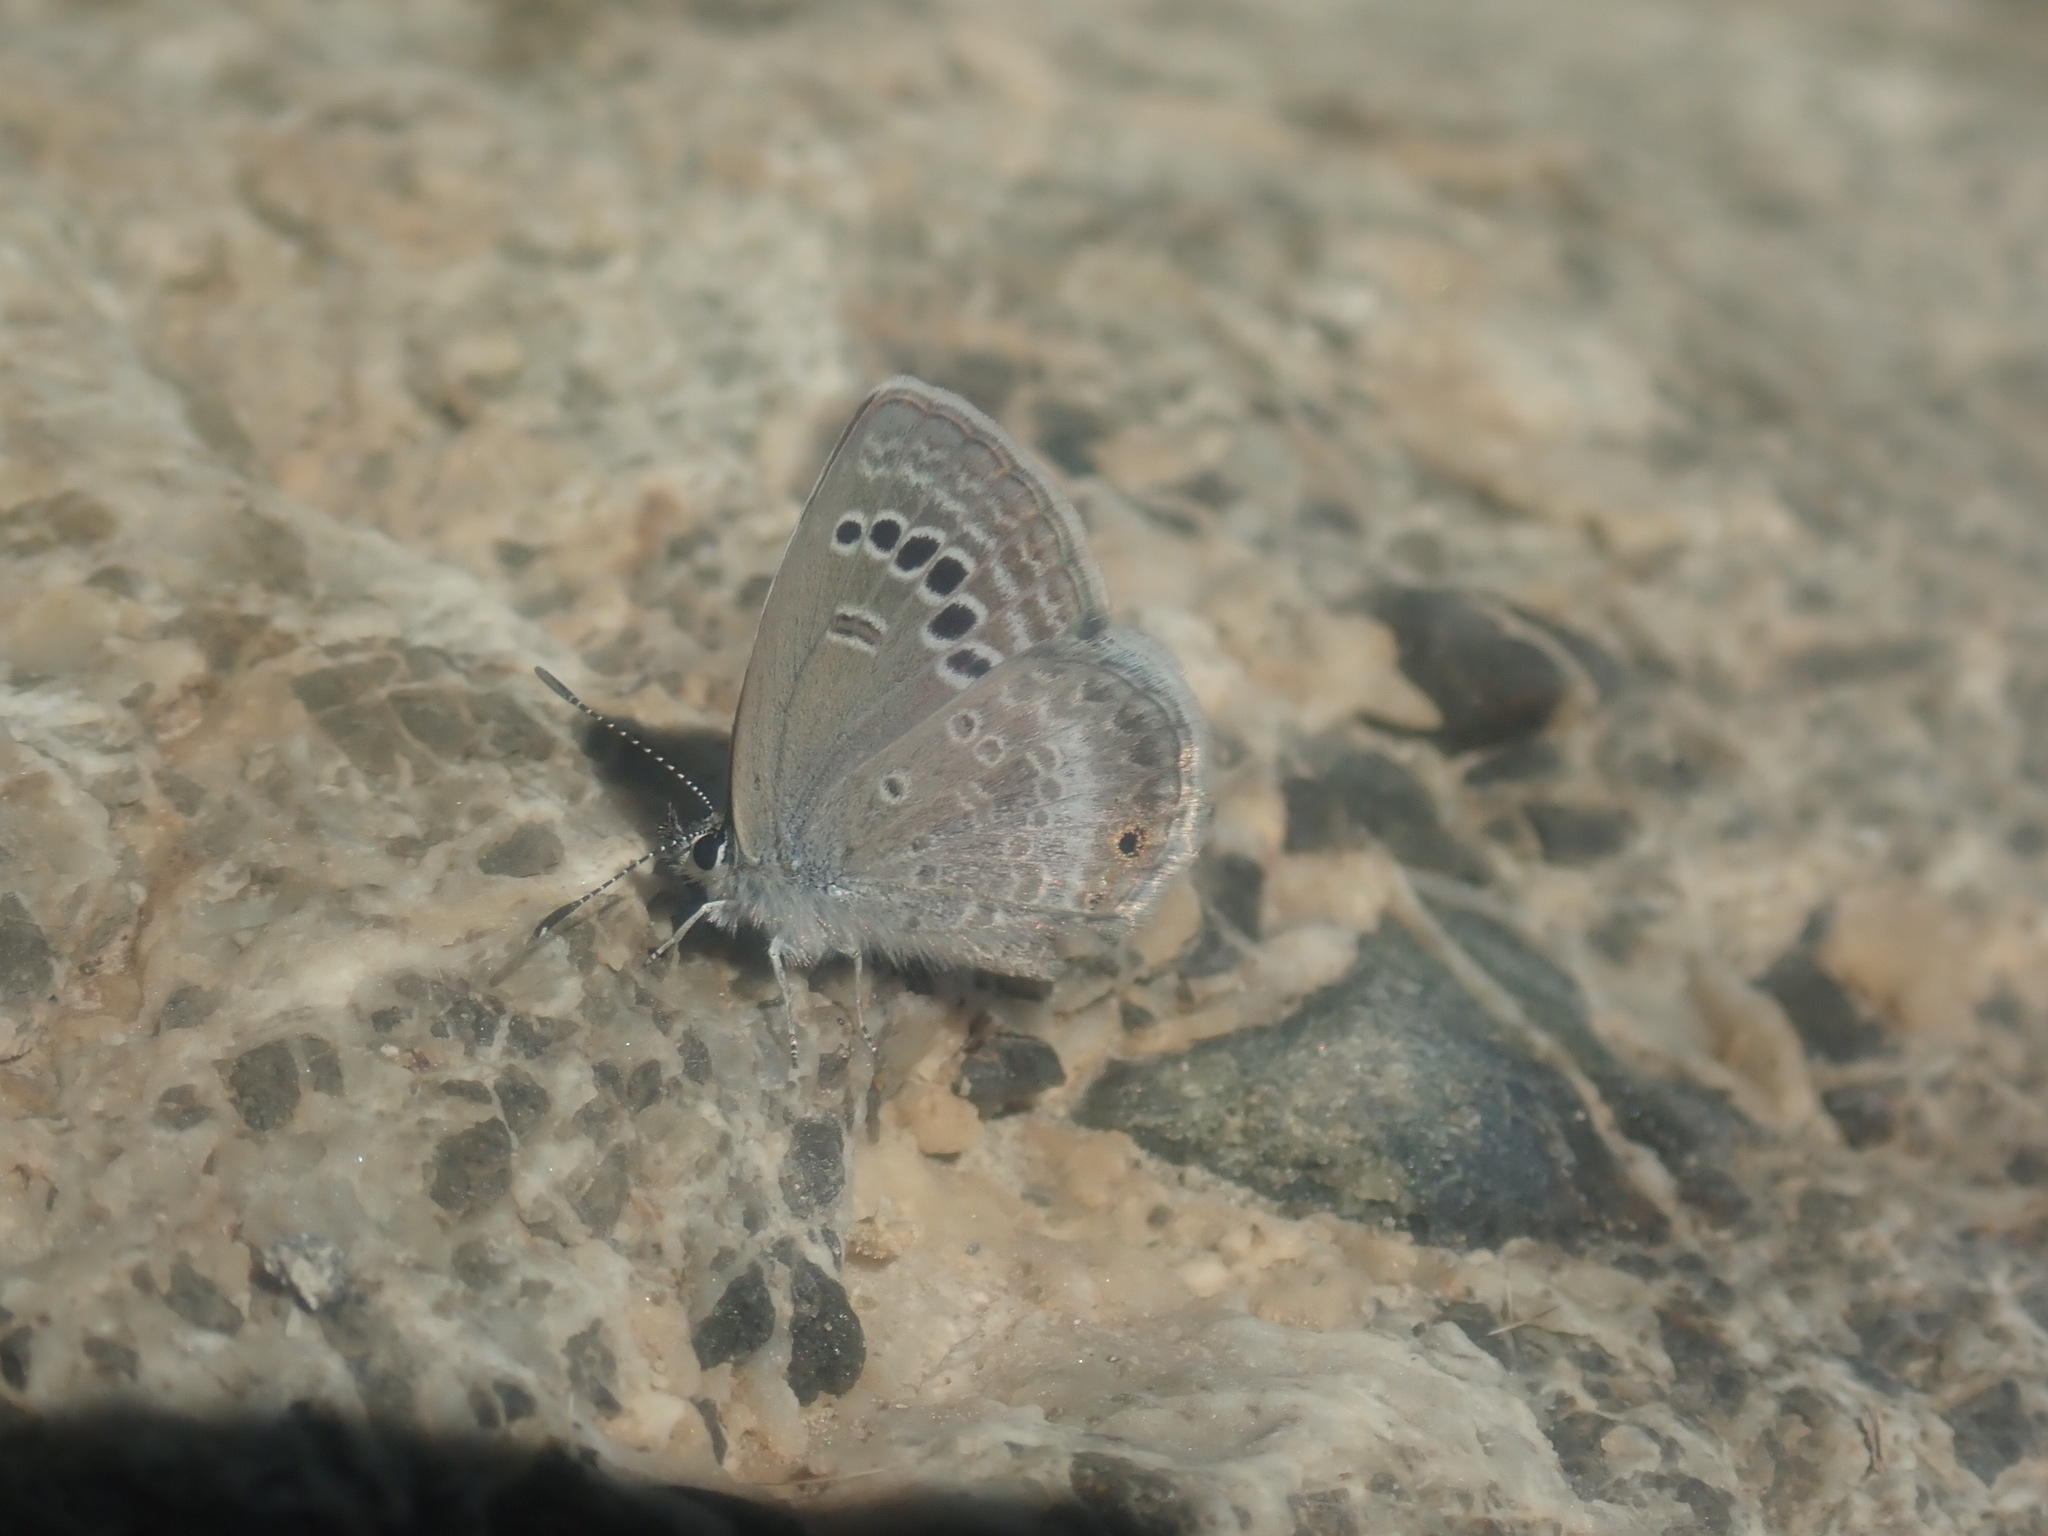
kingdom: Animalia
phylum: Arthropoda
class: Insecta
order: Lepidoptera
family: Lycaenidae
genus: Echinargus
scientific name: Echinargus isola
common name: Reakirt's blue
